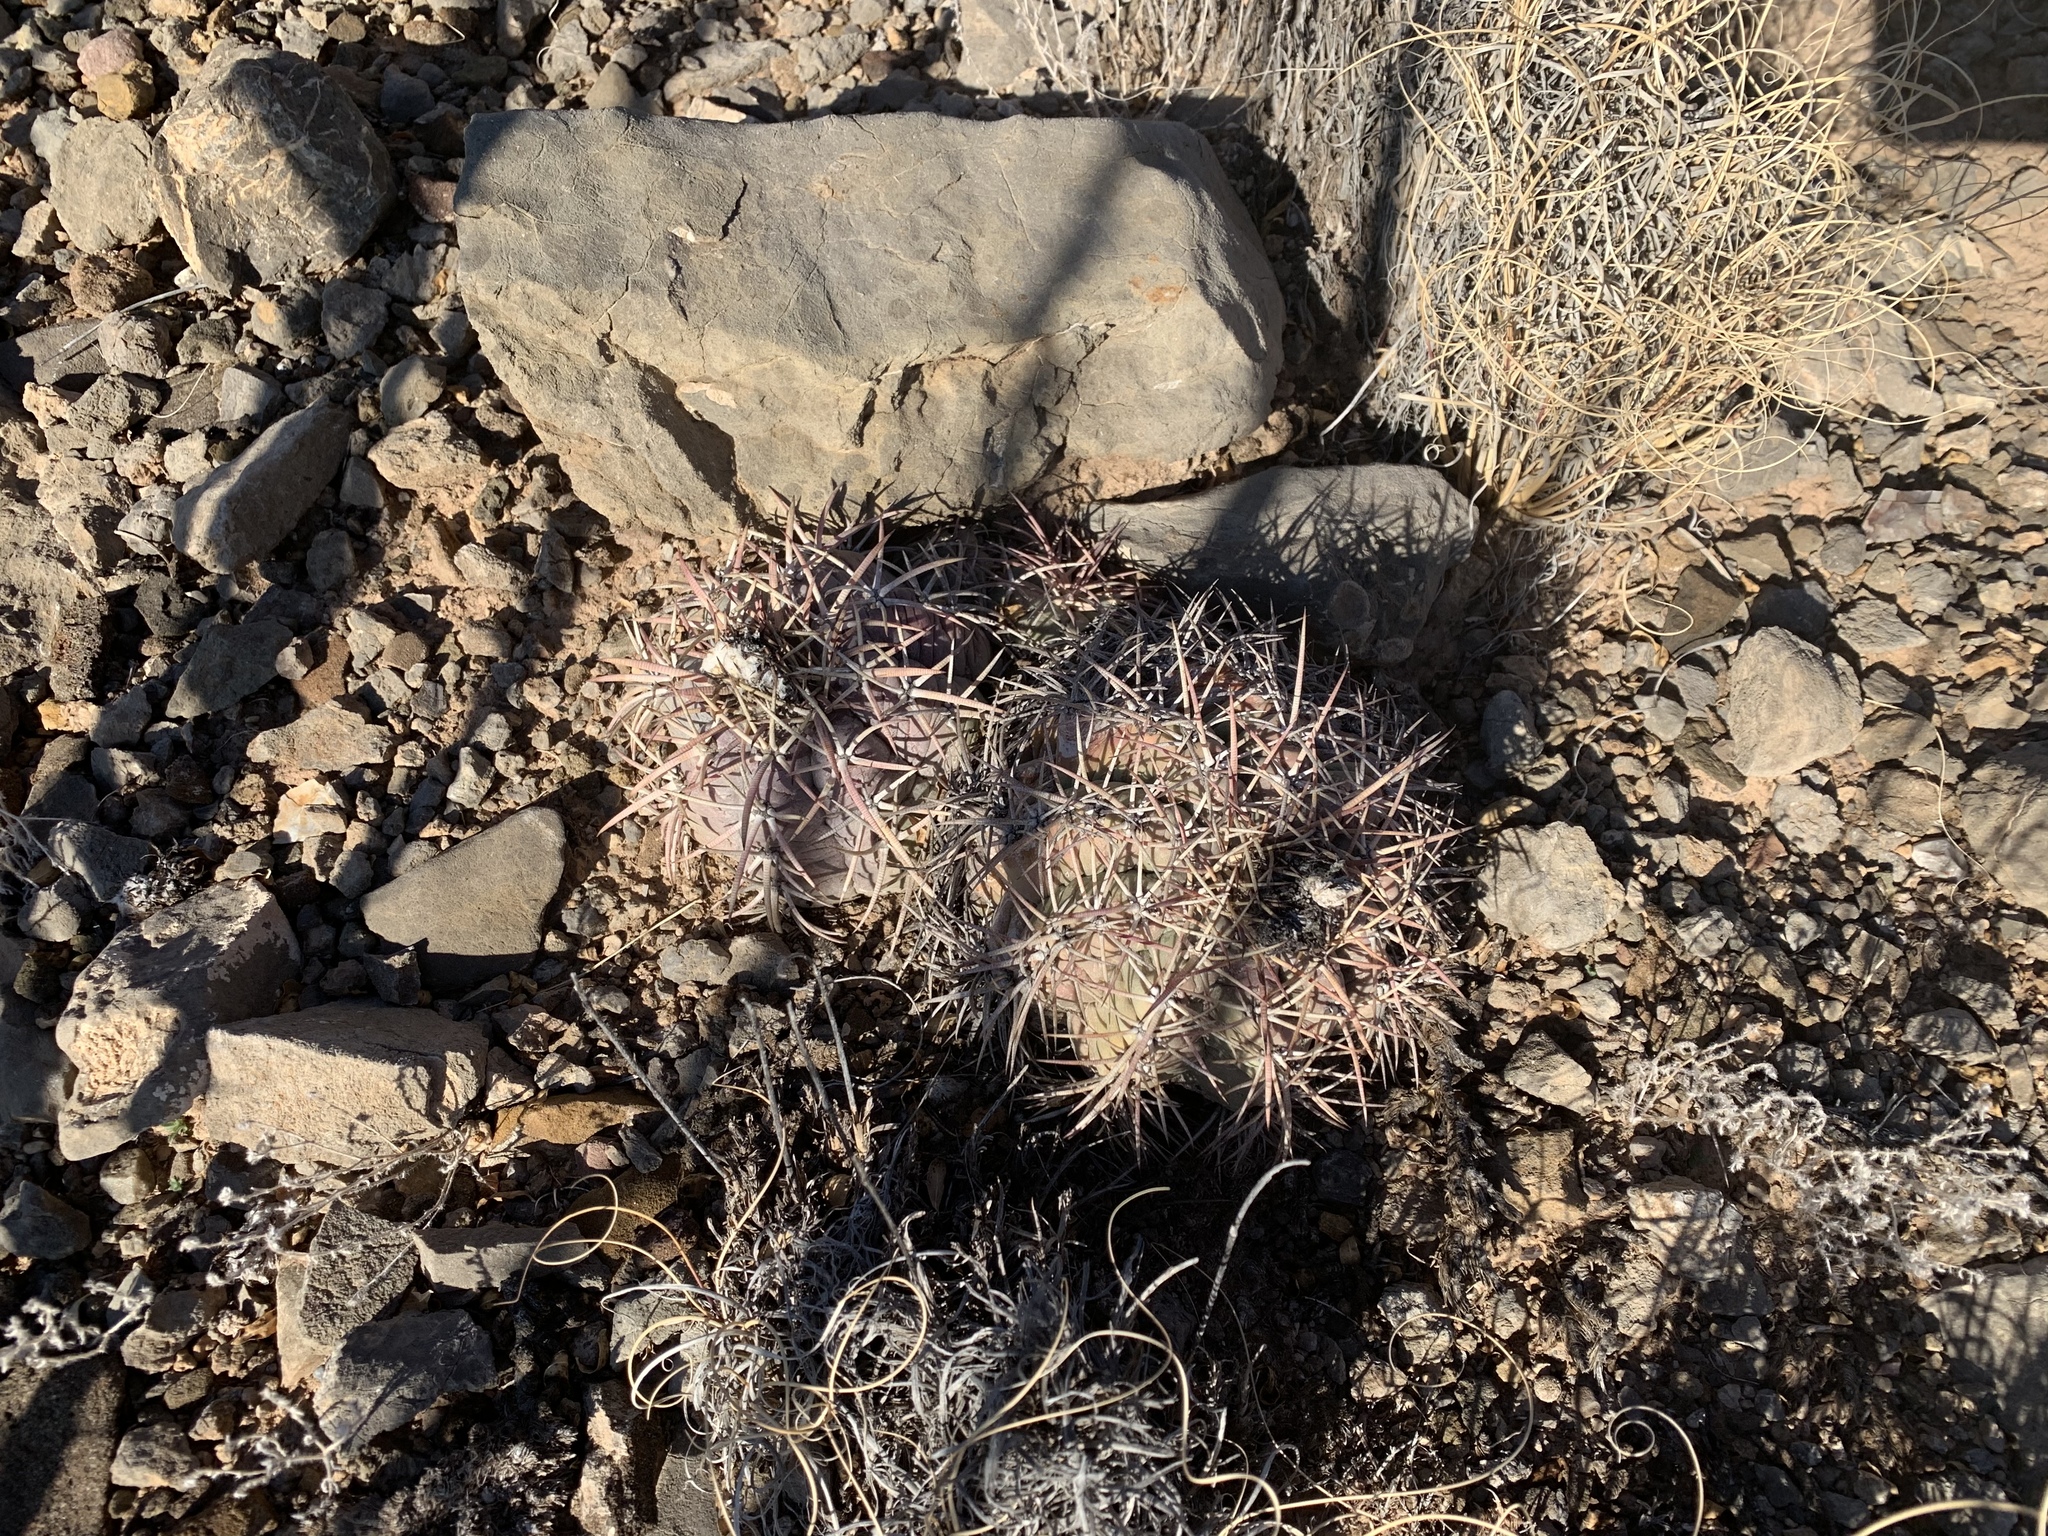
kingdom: Plantae
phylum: Tracheophyta
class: Magnoliopsida
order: Caryophyllales
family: Cactaceae
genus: Echinocactus
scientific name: Echinocactus horizonthalonius
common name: Devilshead
